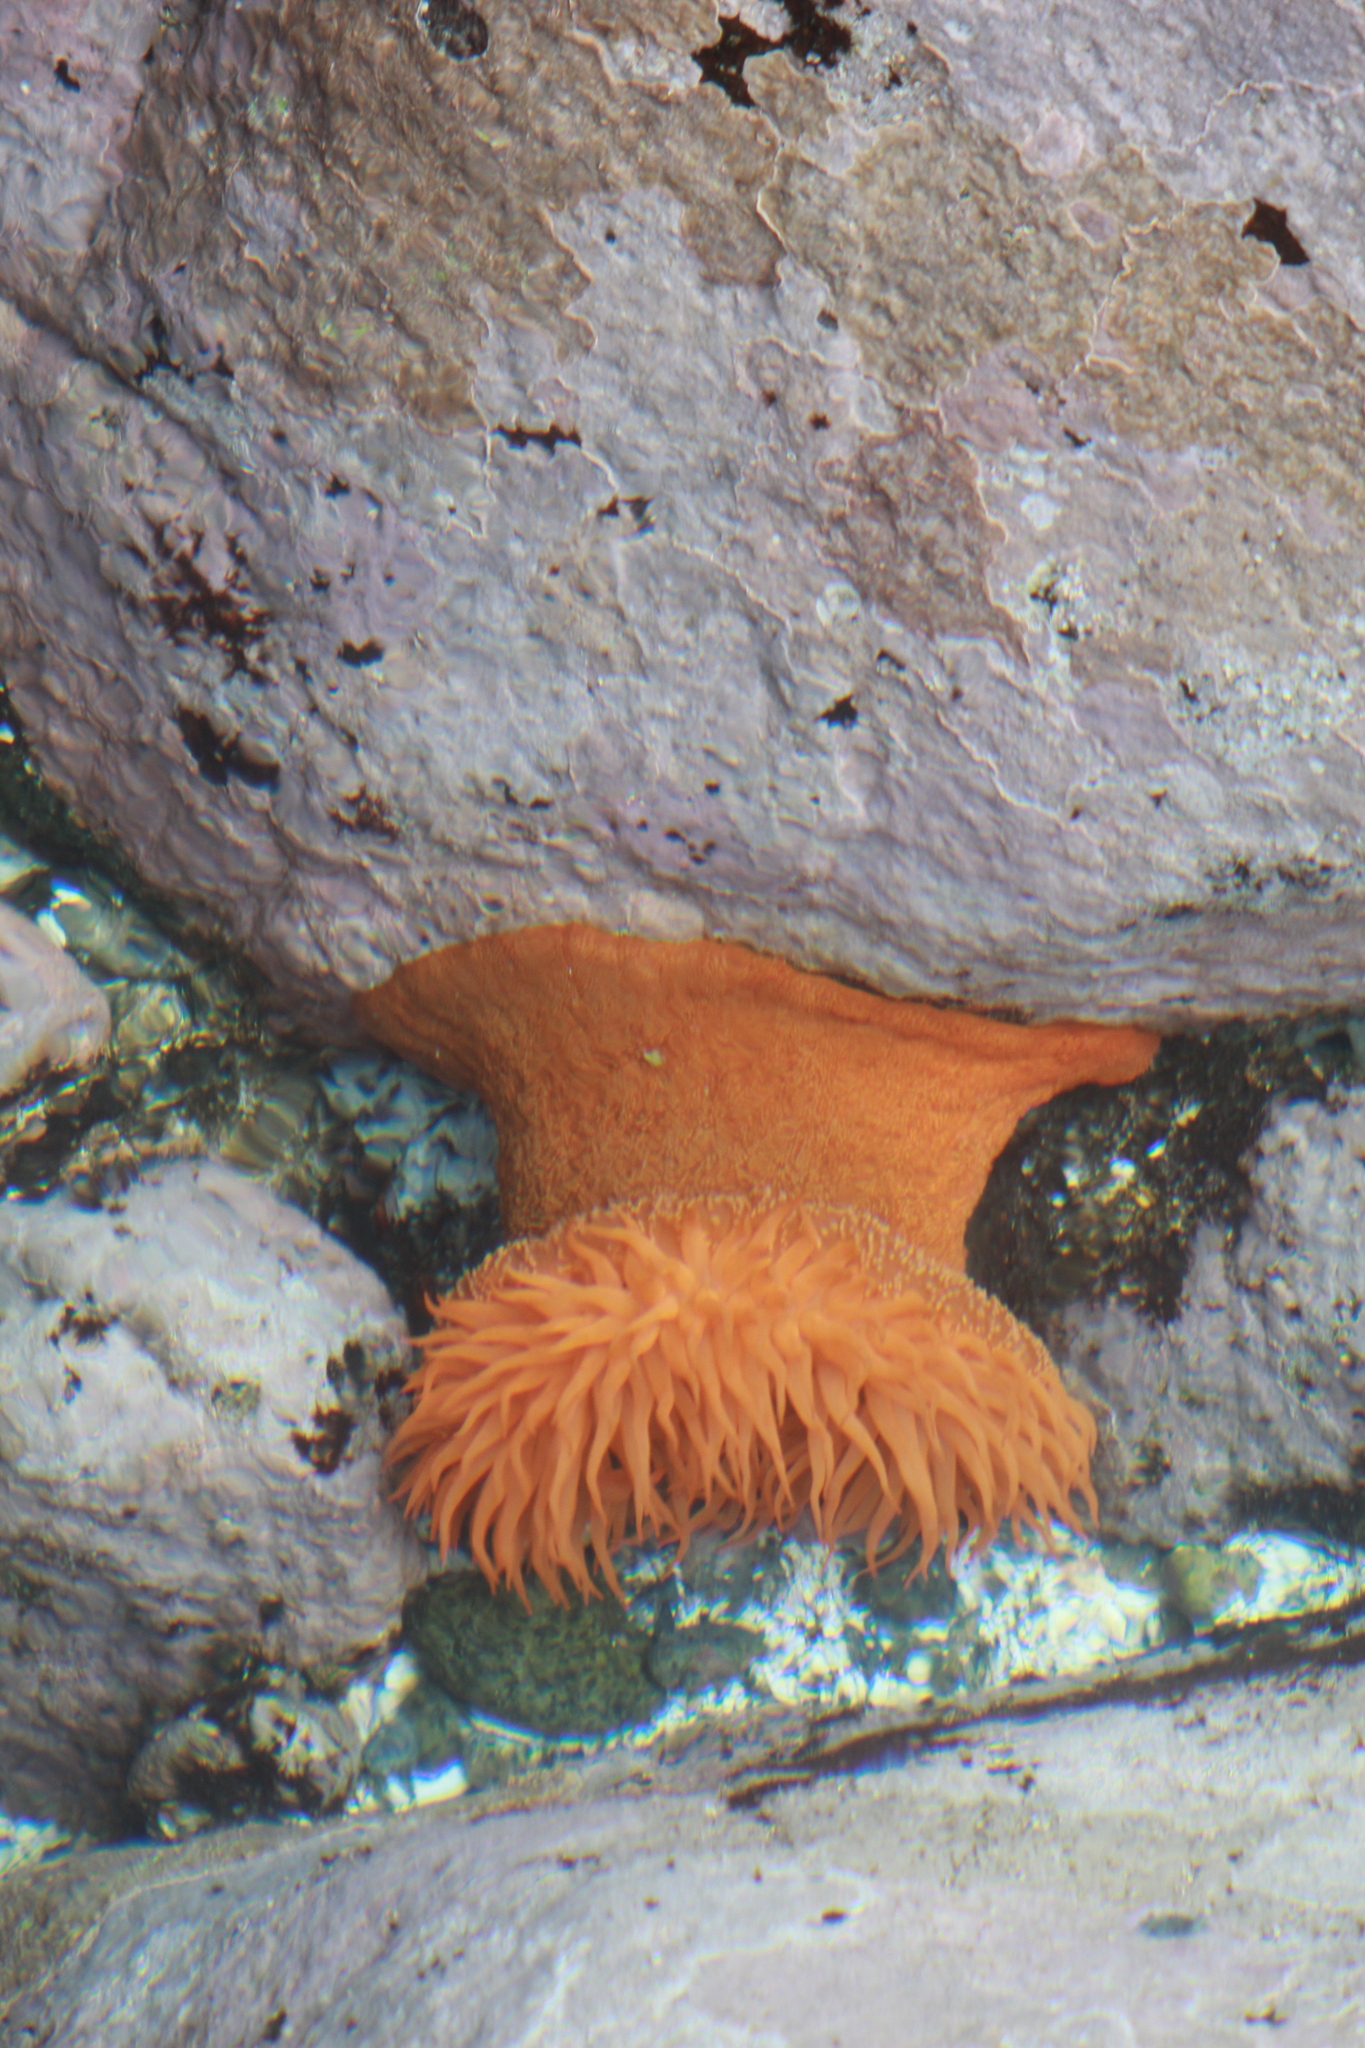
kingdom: Animalia
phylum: Cnidaria
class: Anthozoa
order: Actiniaria
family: Actiniidae
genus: Phymanthea
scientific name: Phymanthea pluvia
